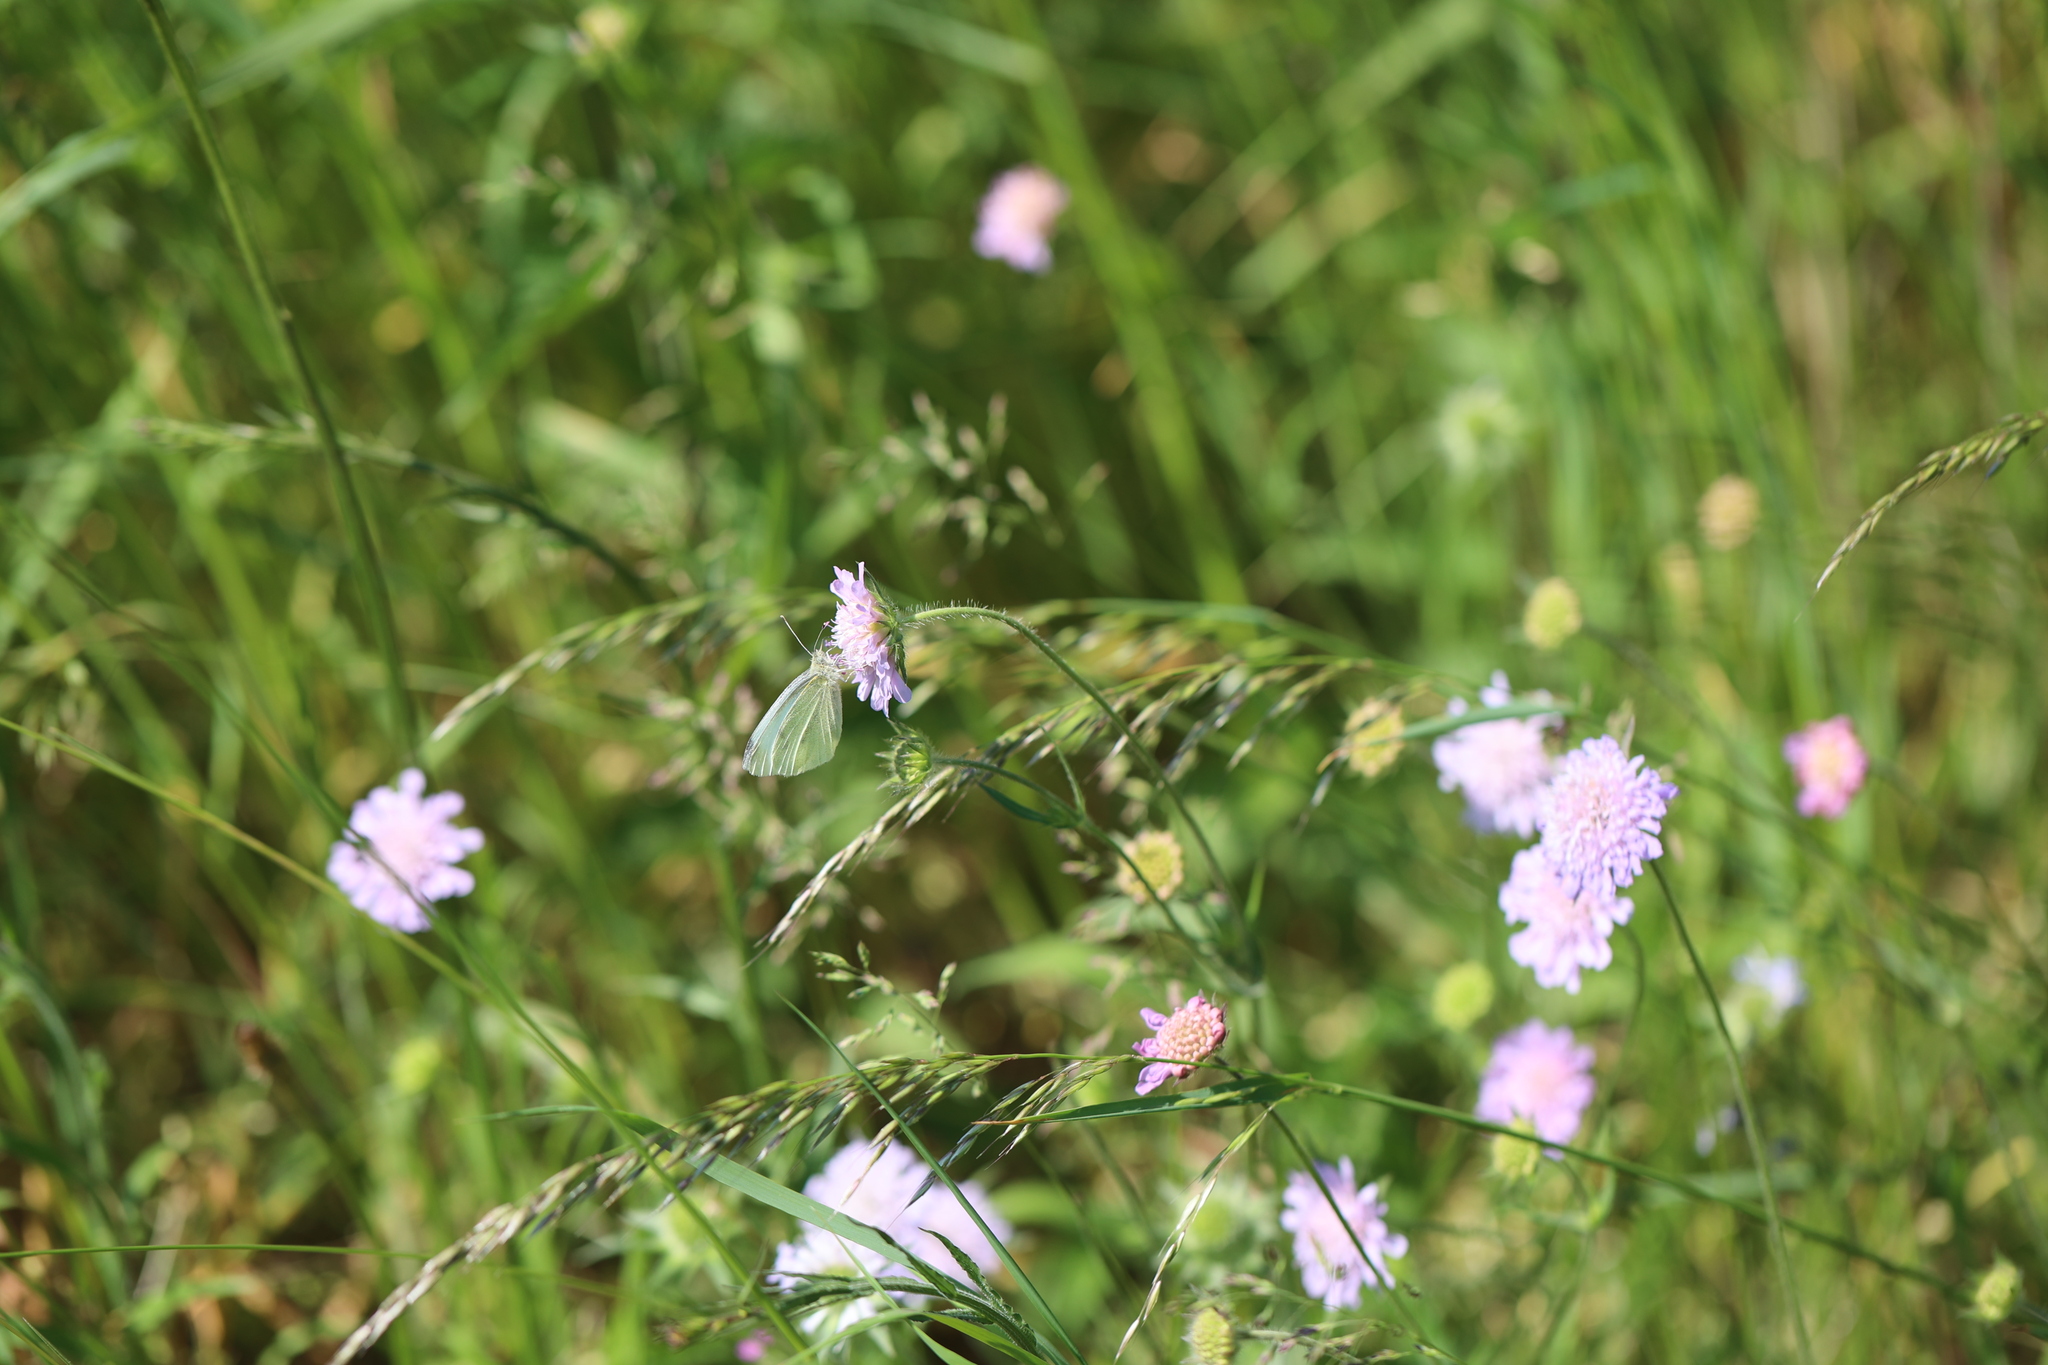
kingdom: Animalia
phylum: Arthropoda
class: Insecta
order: Lepidoptera
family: Pieridae
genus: Pieris
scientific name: Pieris rapae
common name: Small white
